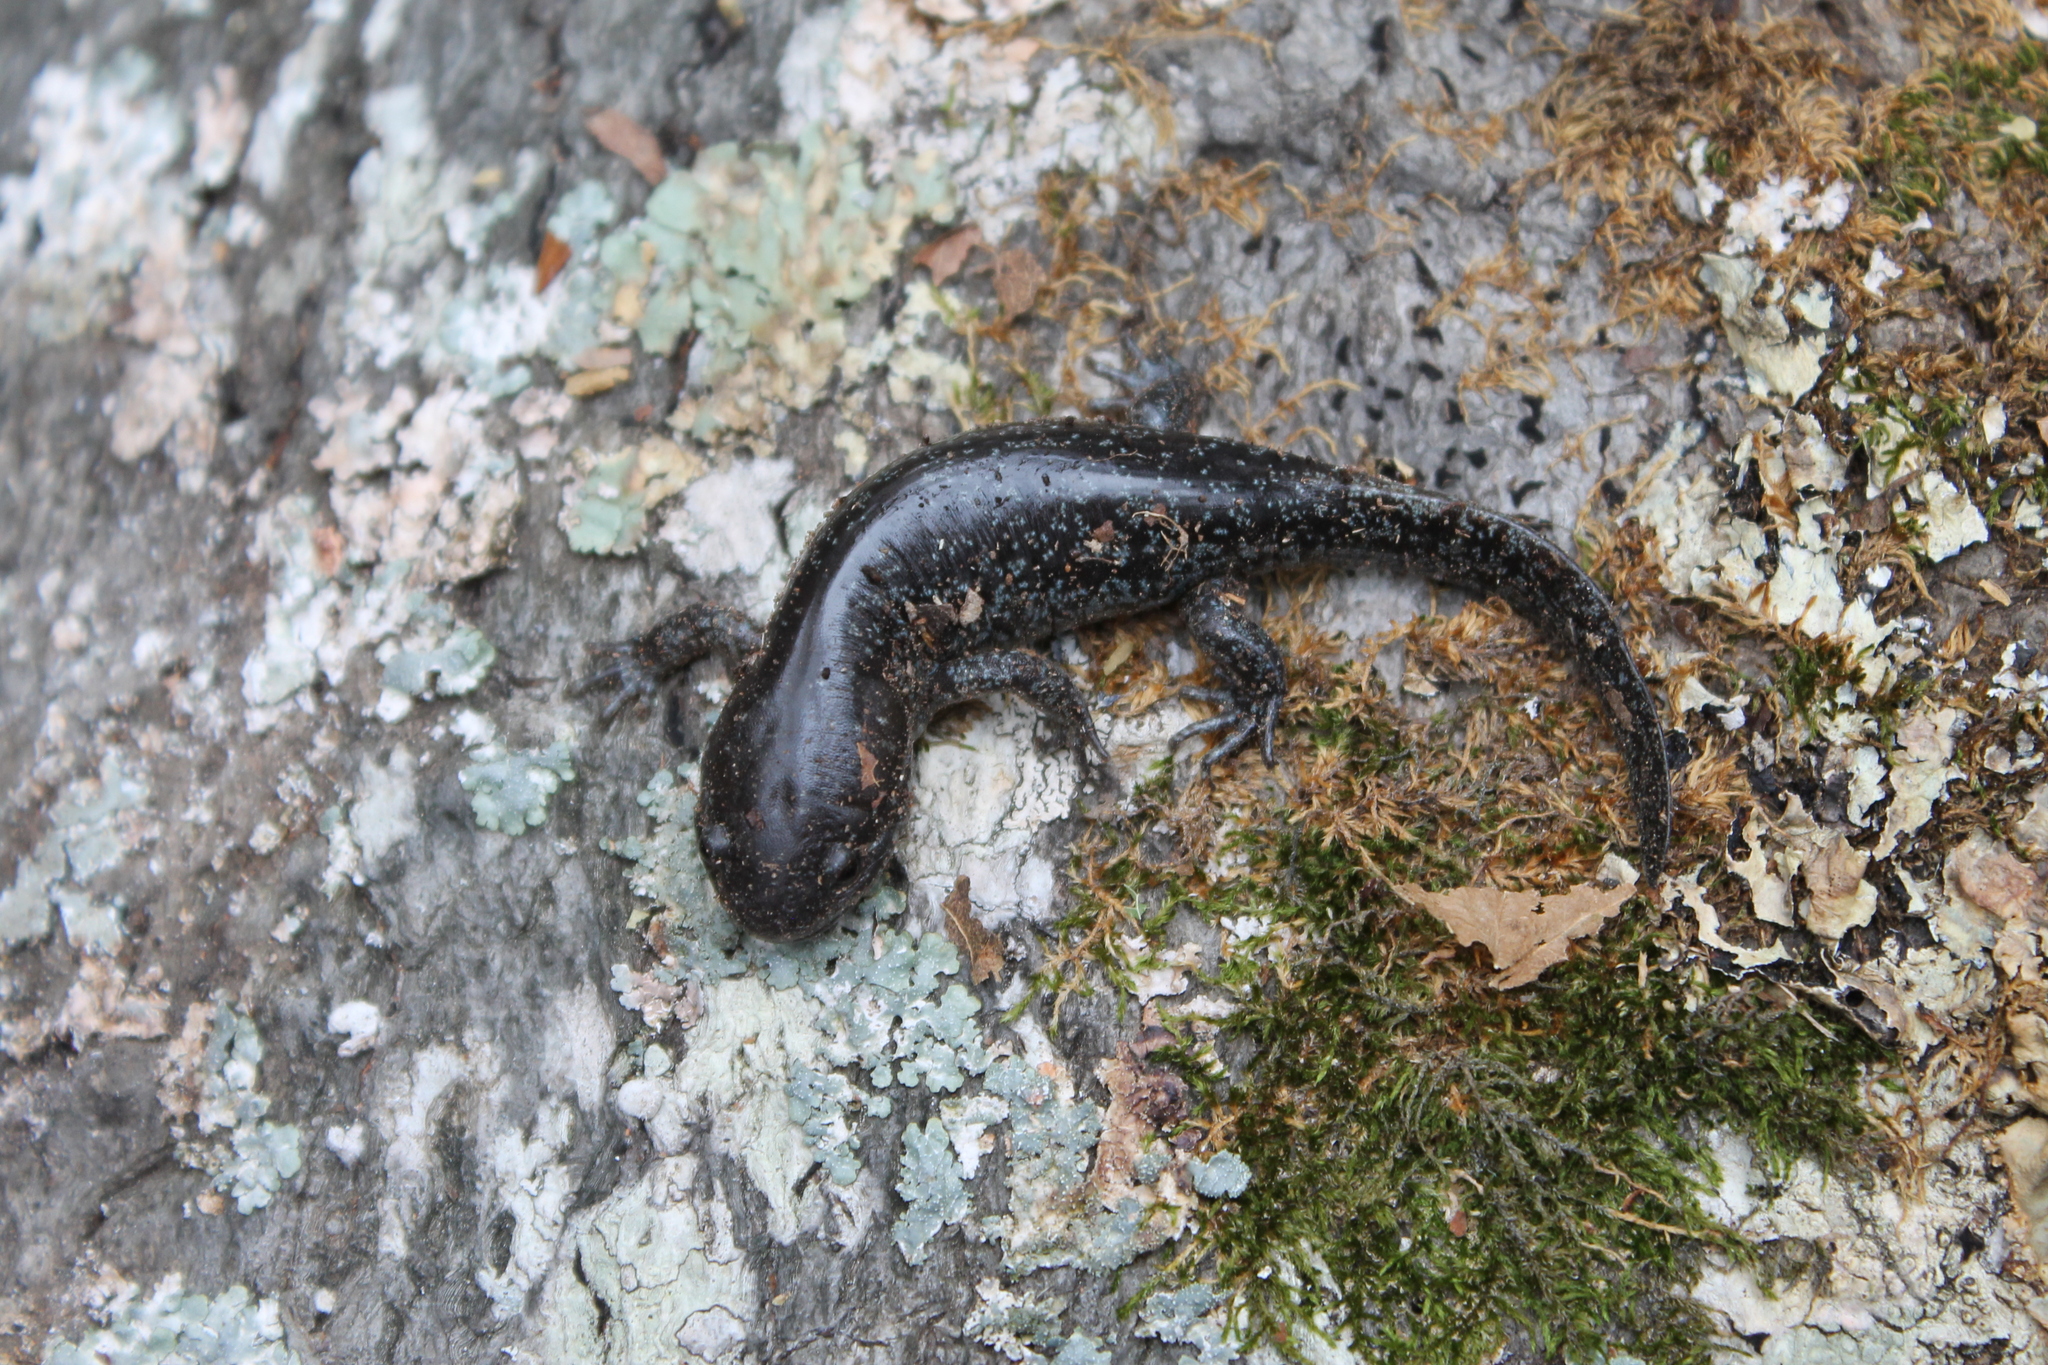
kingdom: Animalia
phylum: Chordata
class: Amphibia
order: Caudata
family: Ambystomatidae
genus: Ambystoma
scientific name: Ambystoma talpoideum
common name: Mole salamander
